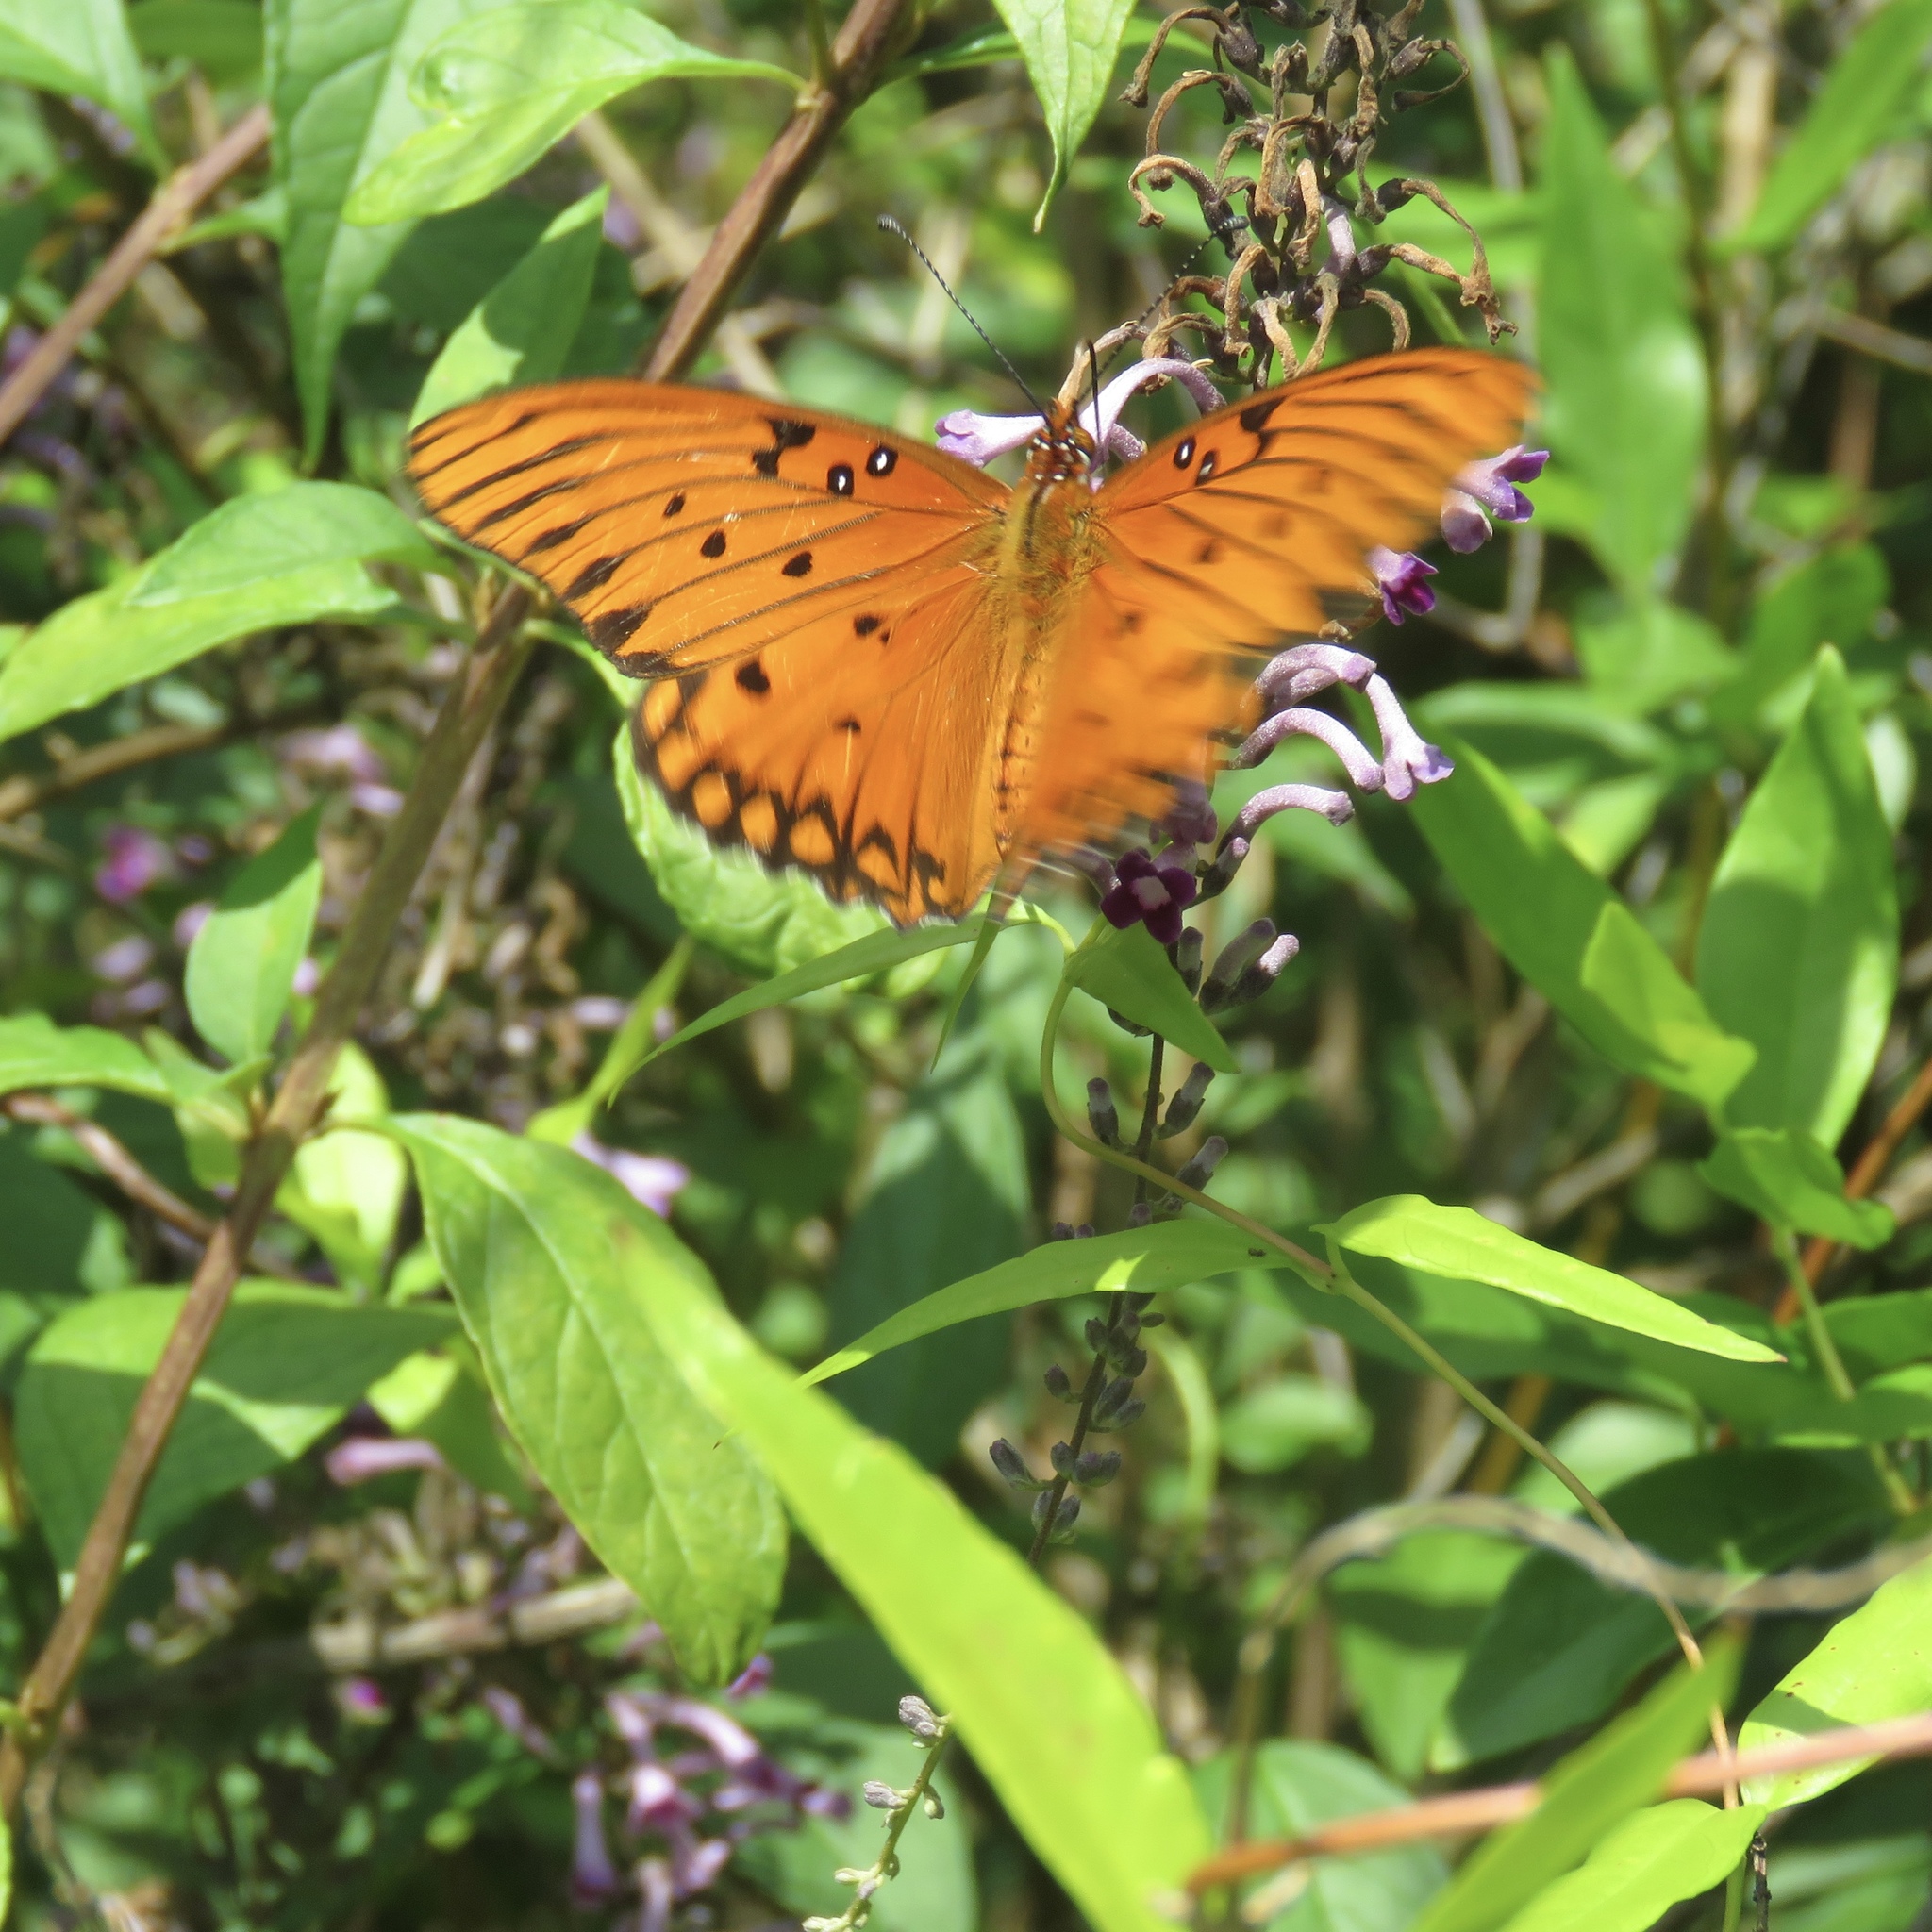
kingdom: Animalia
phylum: Arthropoda
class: Insecta
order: Lepidoptera
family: Nymphalidae
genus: Dione
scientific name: Dione vanillae
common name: Gulf fritillary
